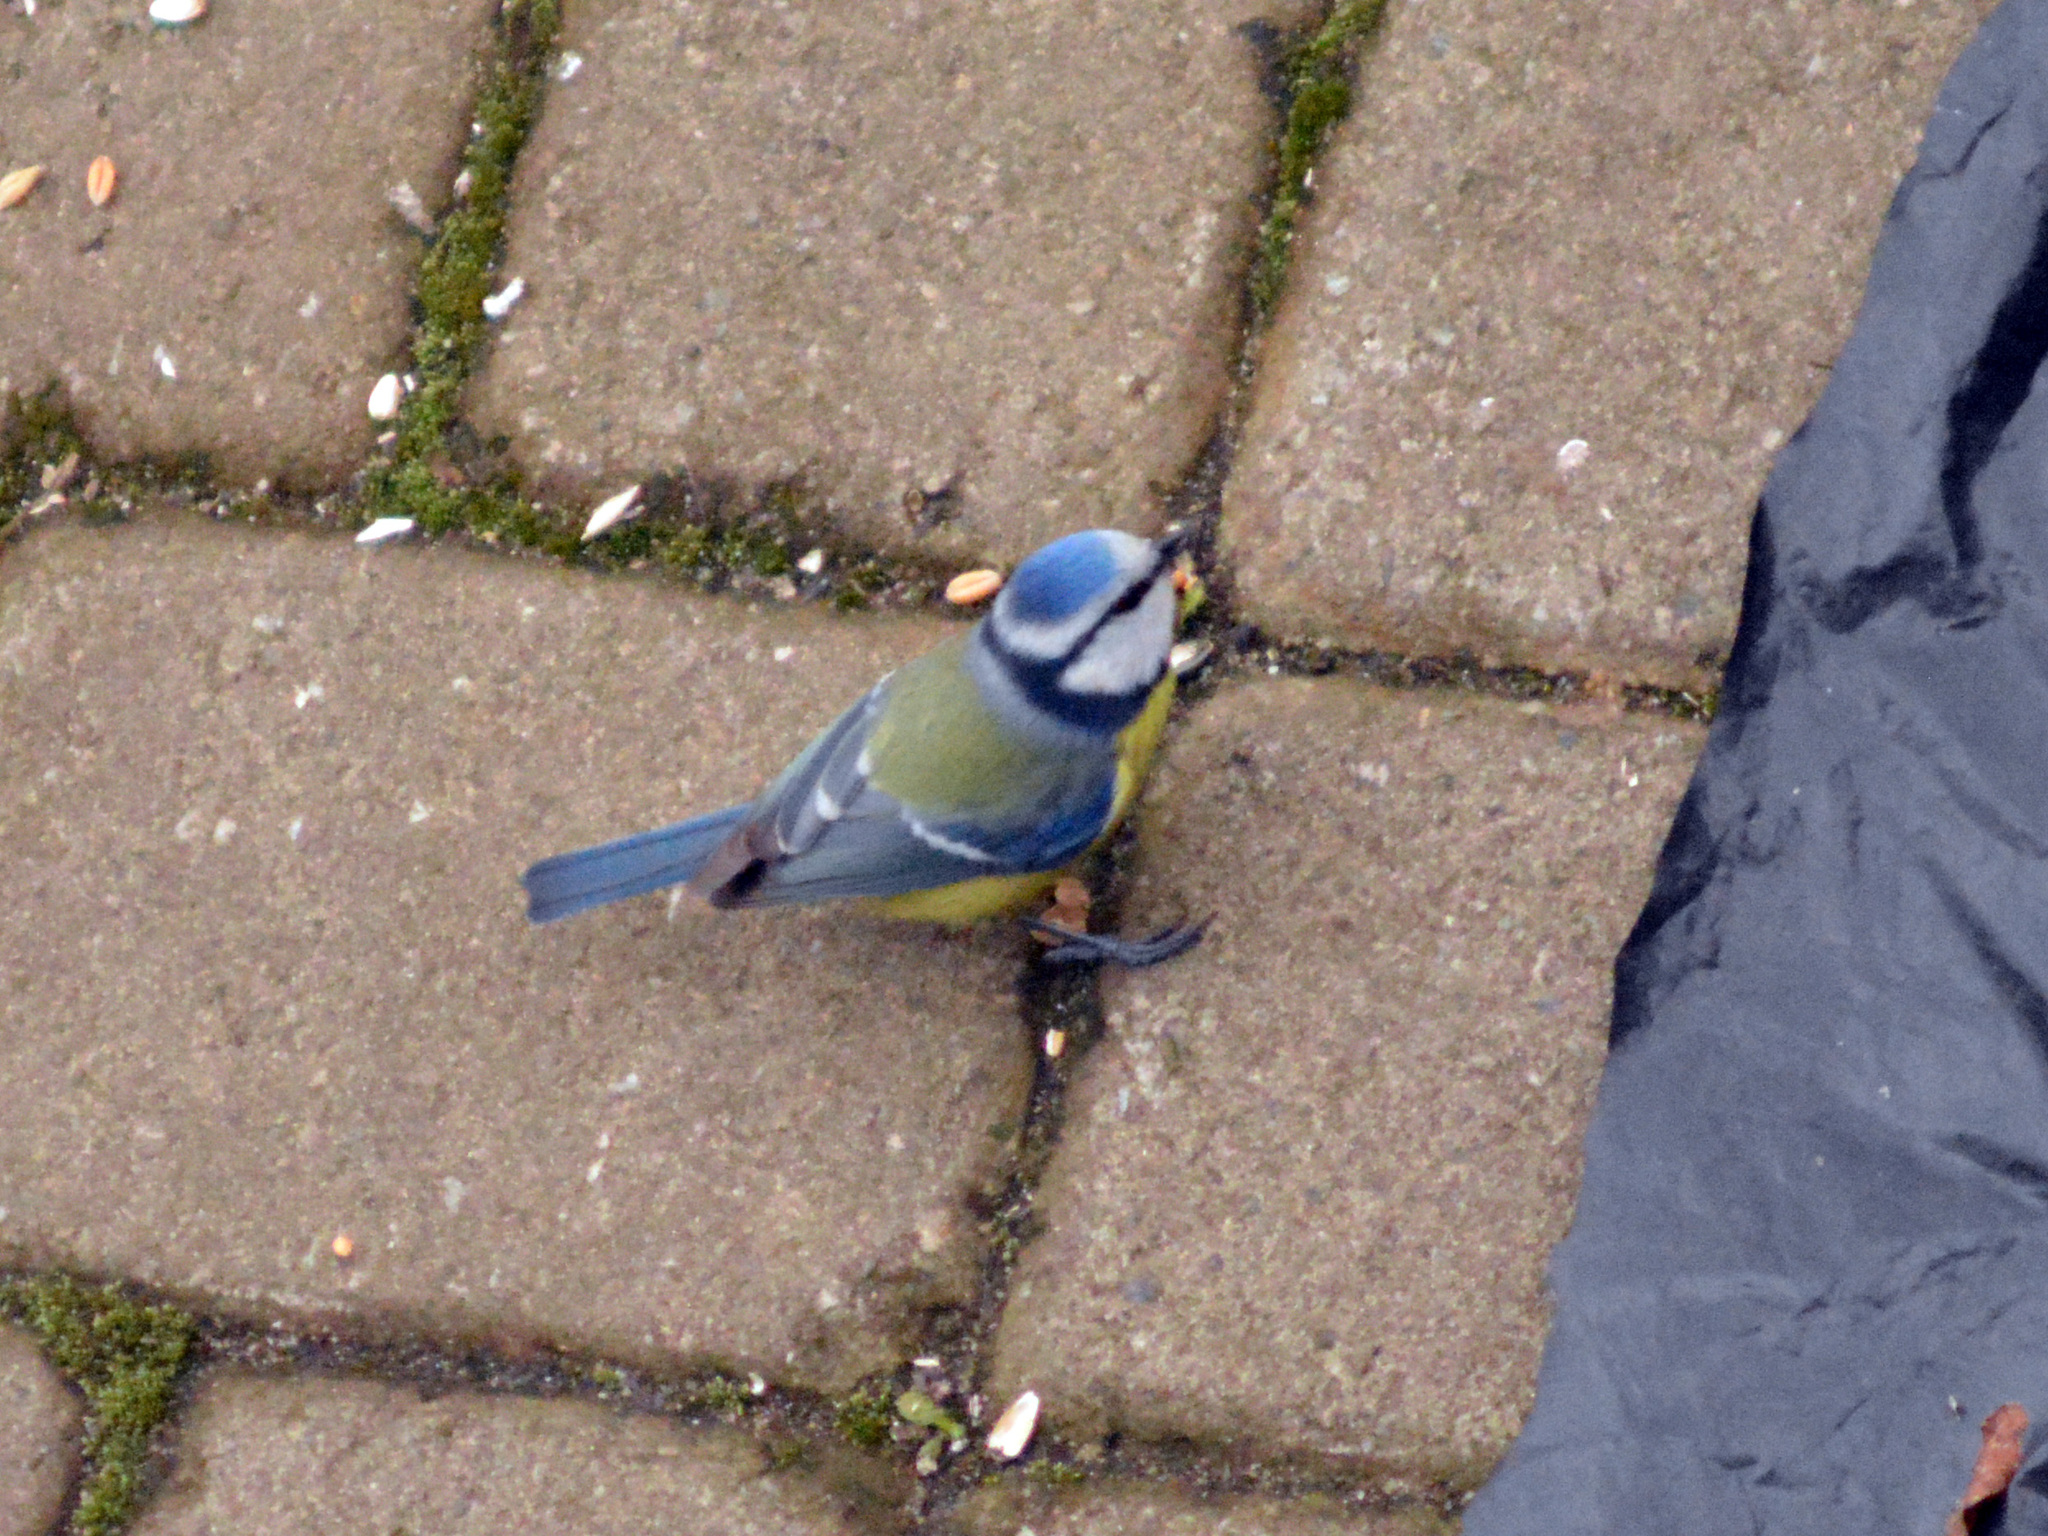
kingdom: Animalia
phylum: Chordata
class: Aves
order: Passeriformes
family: Paridae
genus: Cyanistes
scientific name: Cyanistes caeruleus
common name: Eurasian blue tit
